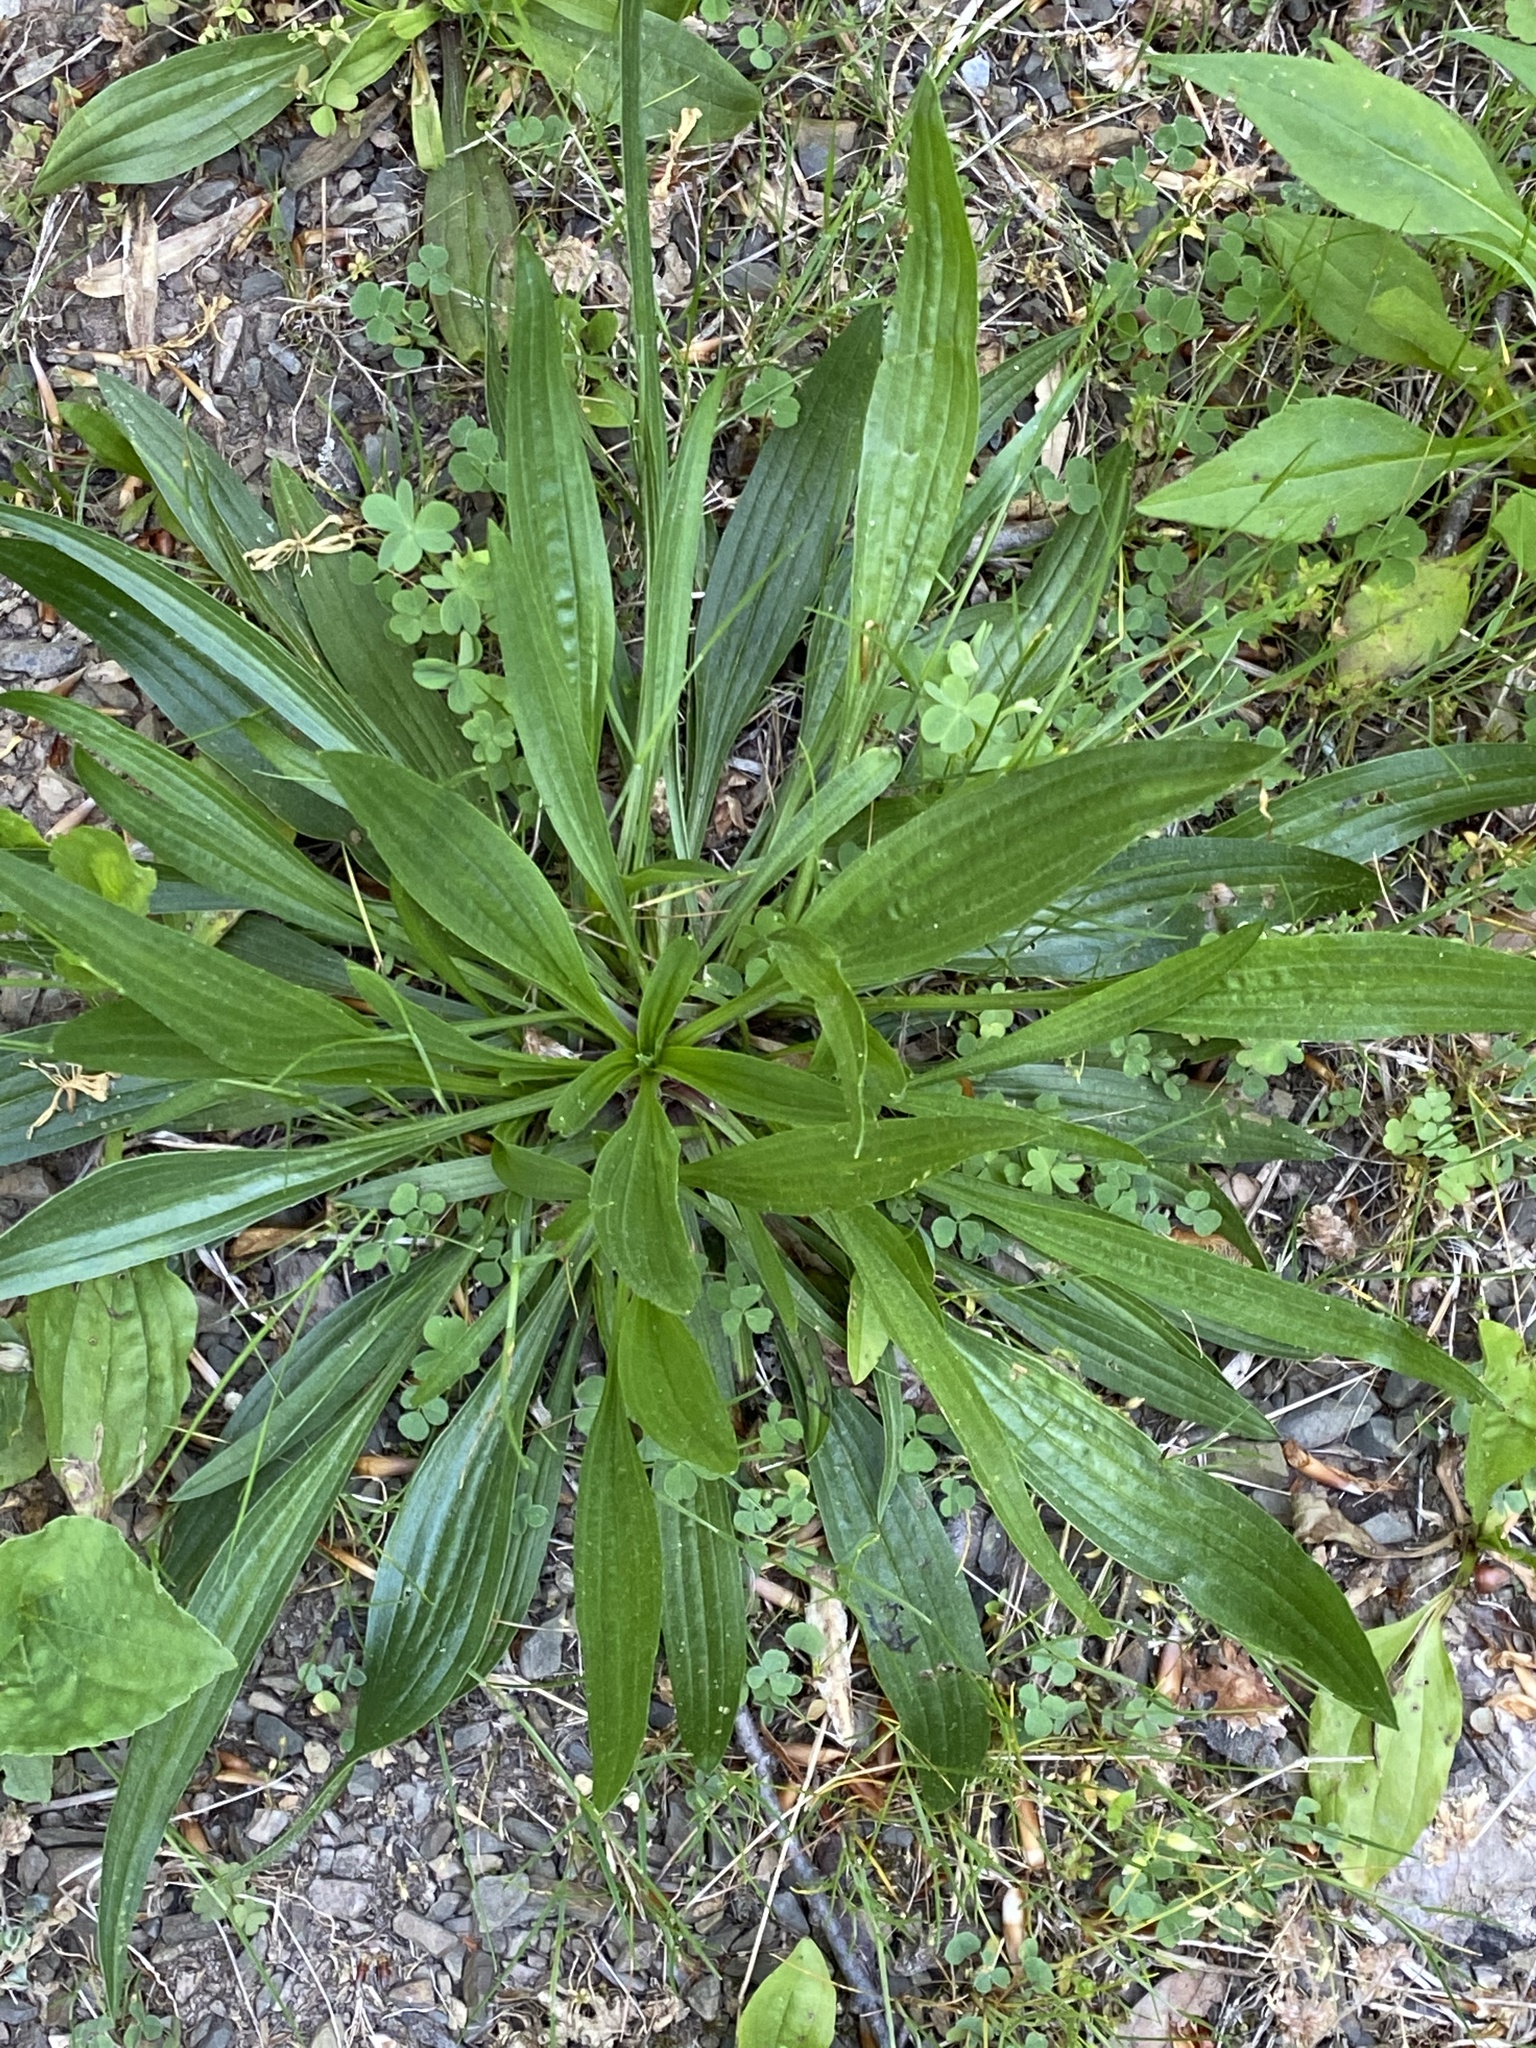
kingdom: Plantae
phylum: Tracheophyta
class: Magnoliopsida
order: Lamiales
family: Plantaginaceae
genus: Plantago
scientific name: Plantago lanceolata
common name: Ribwort plantain
